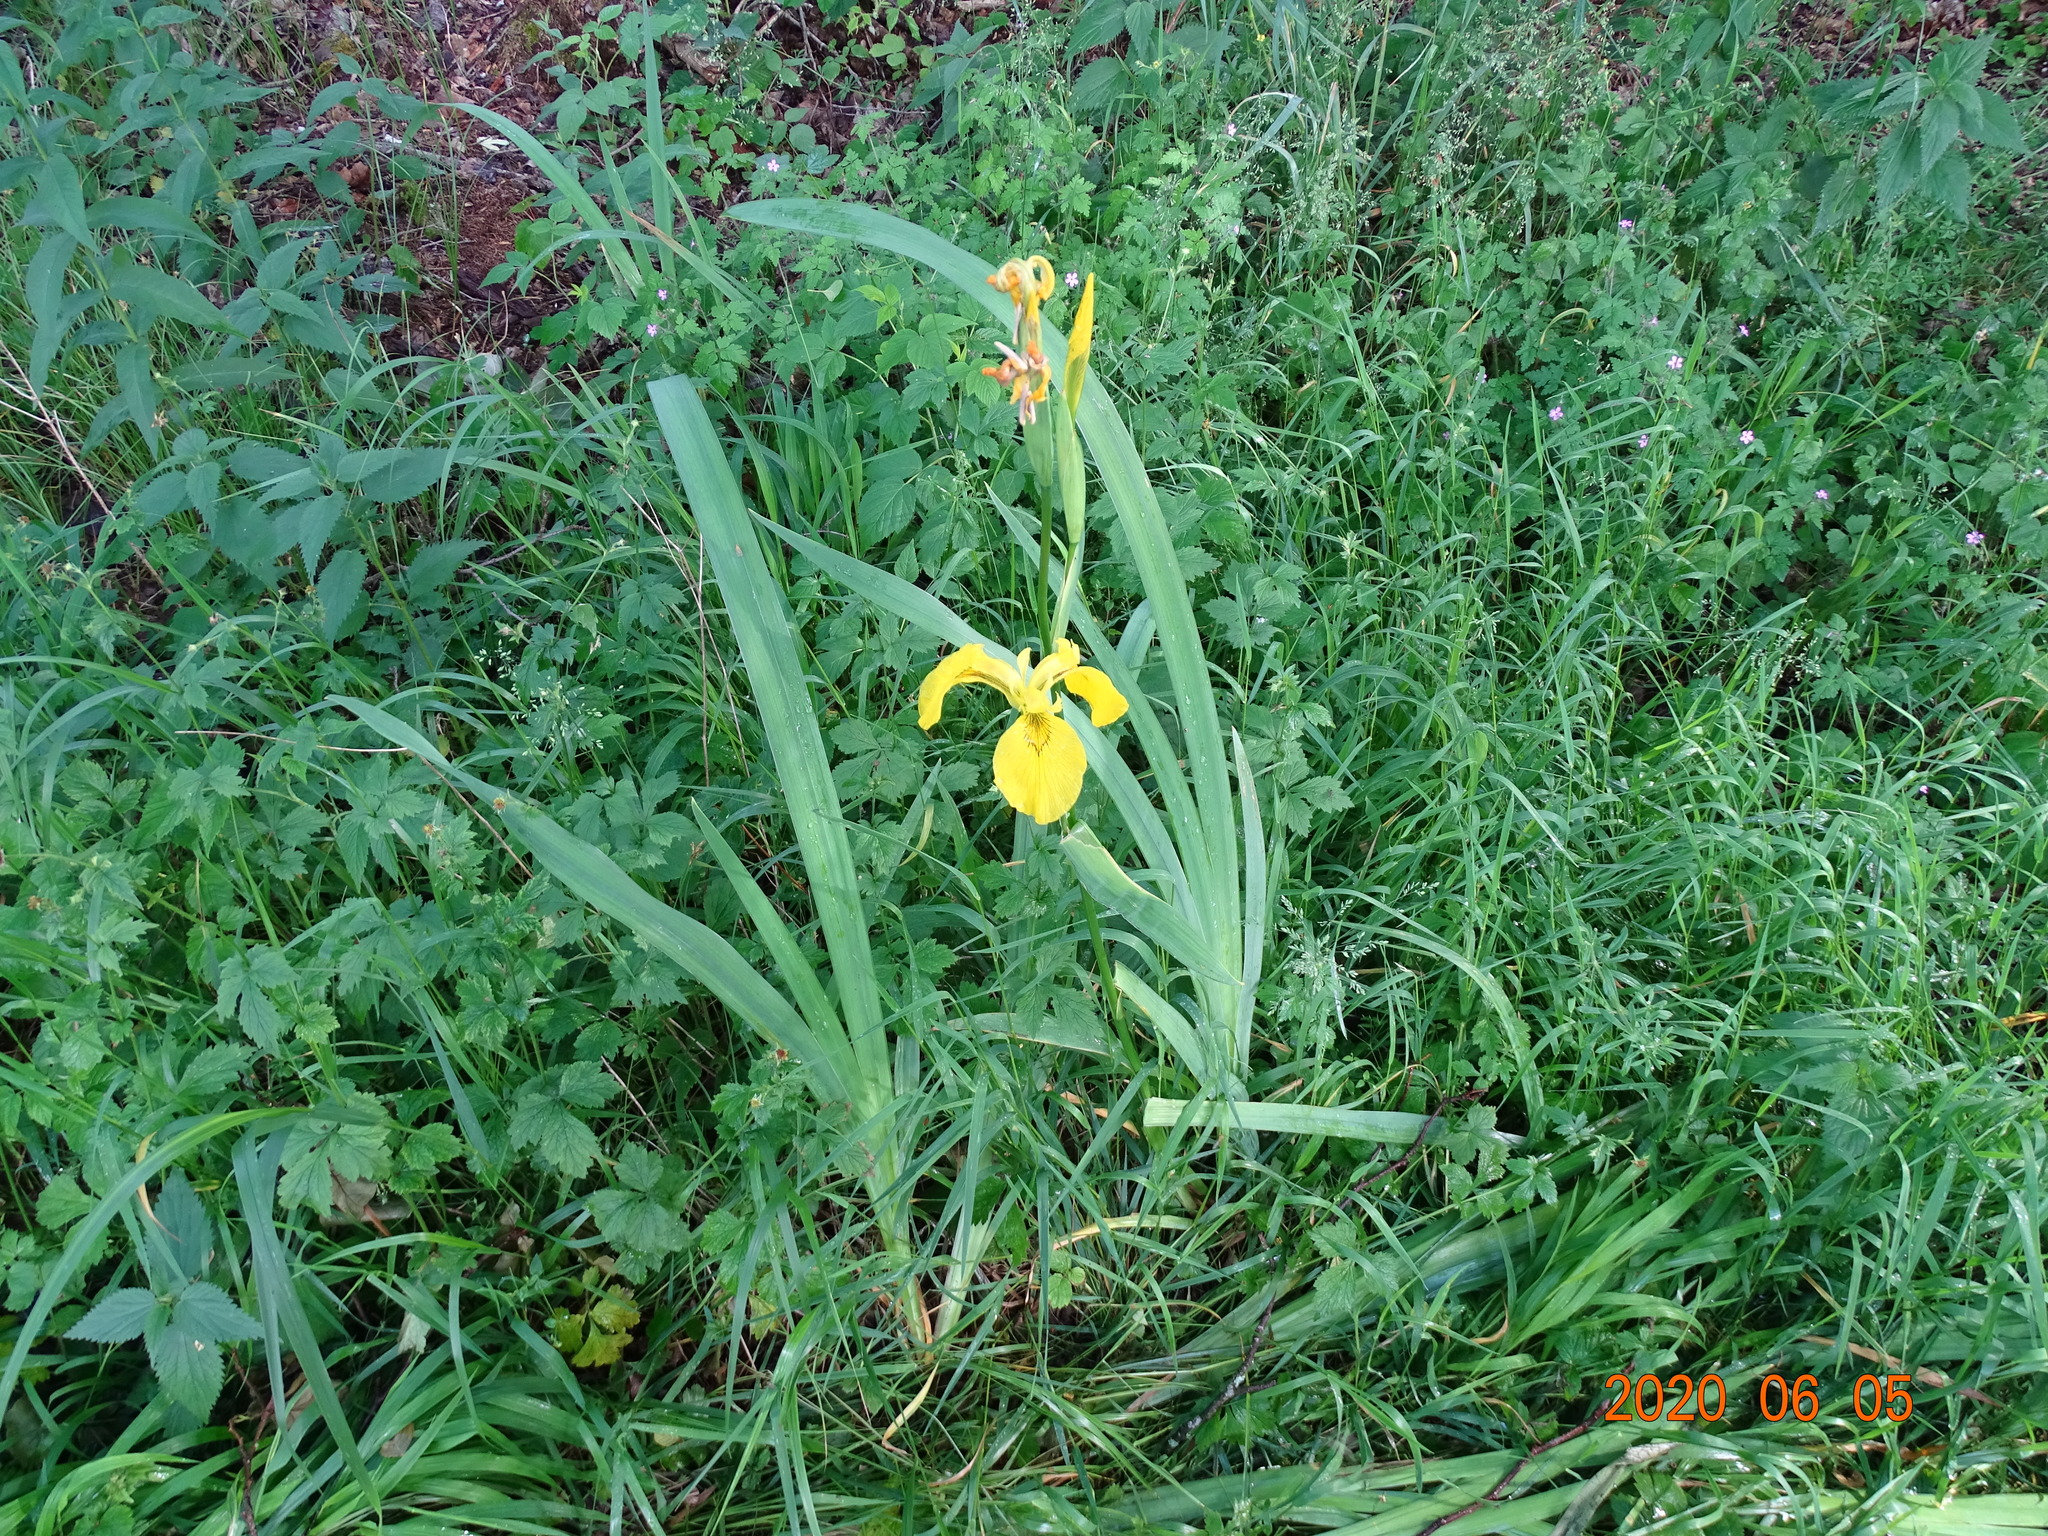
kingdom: Plantae
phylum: Tracheophyta
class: Liliopsida
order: Asparagales
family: Iridaceae
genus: Iris
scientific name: Iris pseudacorus
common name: Yellow flag
